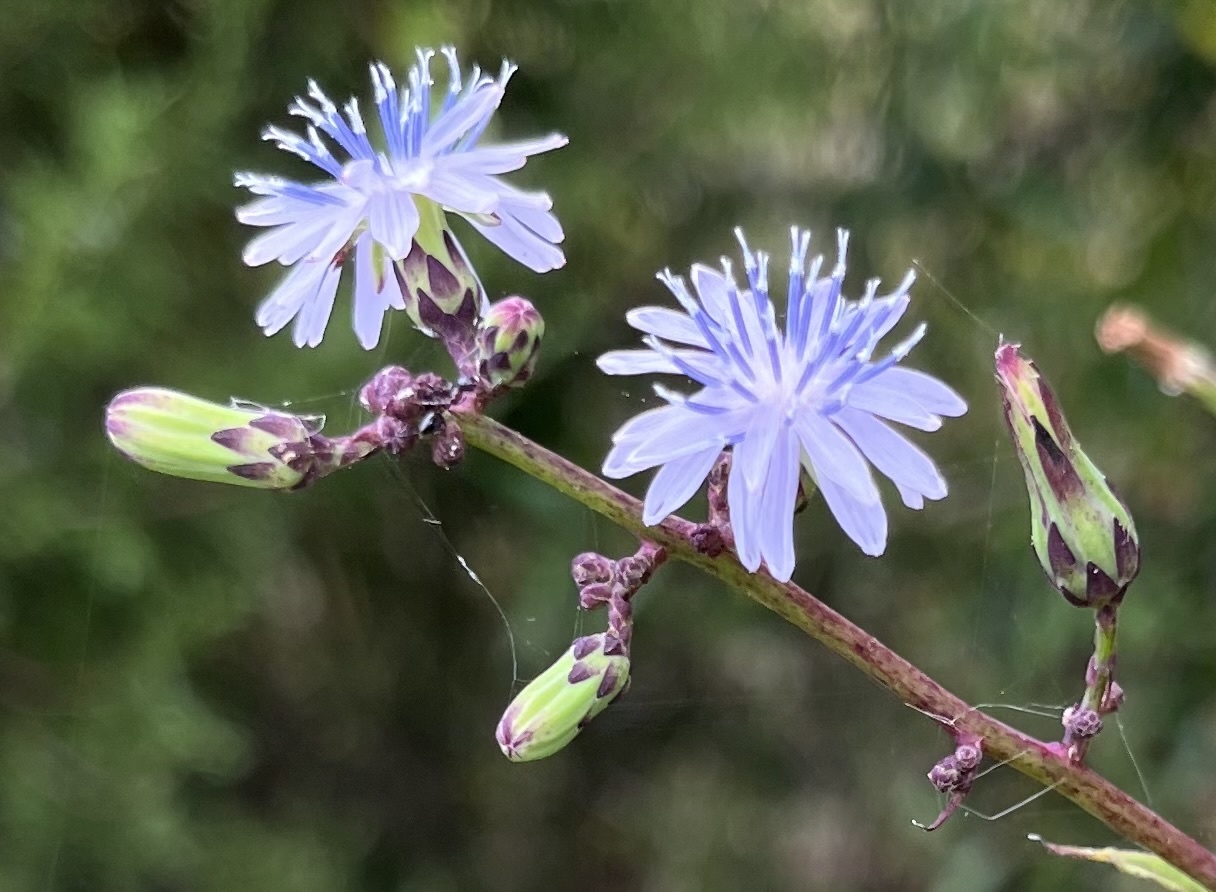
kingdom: Plantae
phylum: Tracheophyta
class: Magnoliopsida
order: Asterales
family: Asteraceae
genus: Lactuca
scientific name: Lactuca floridana
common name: Woodland lettuce
